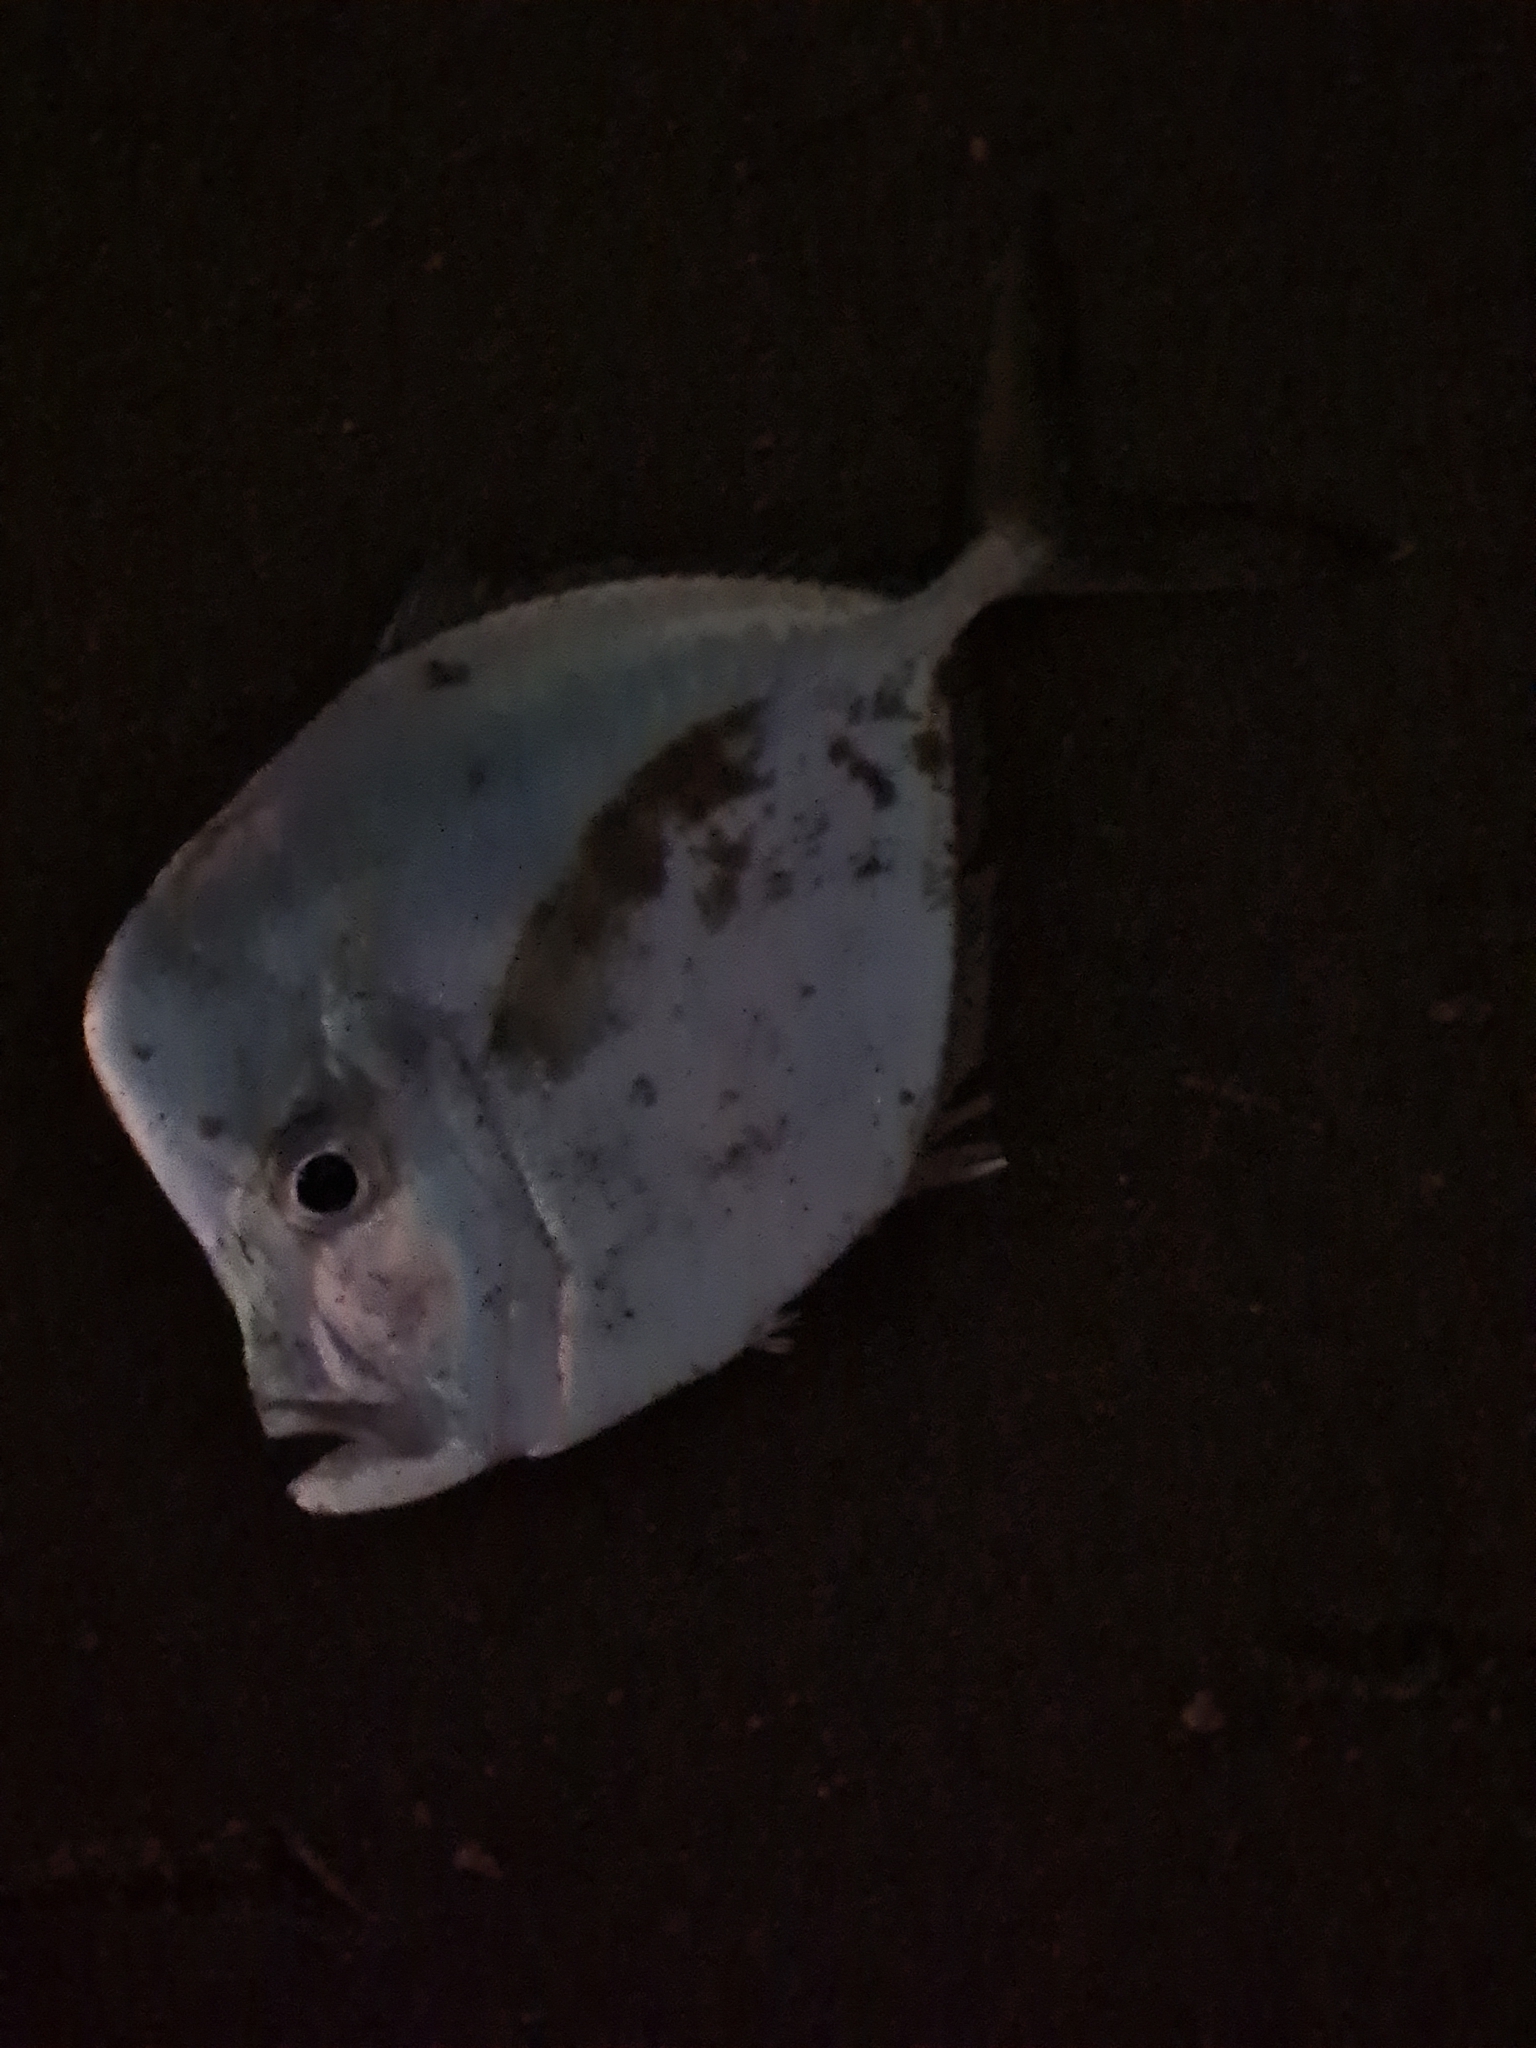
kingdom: Animalia
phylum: Chordata
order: Perciformes
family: Carangidae
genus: Selene
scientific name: Selene setapinnis
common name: Moonfish
